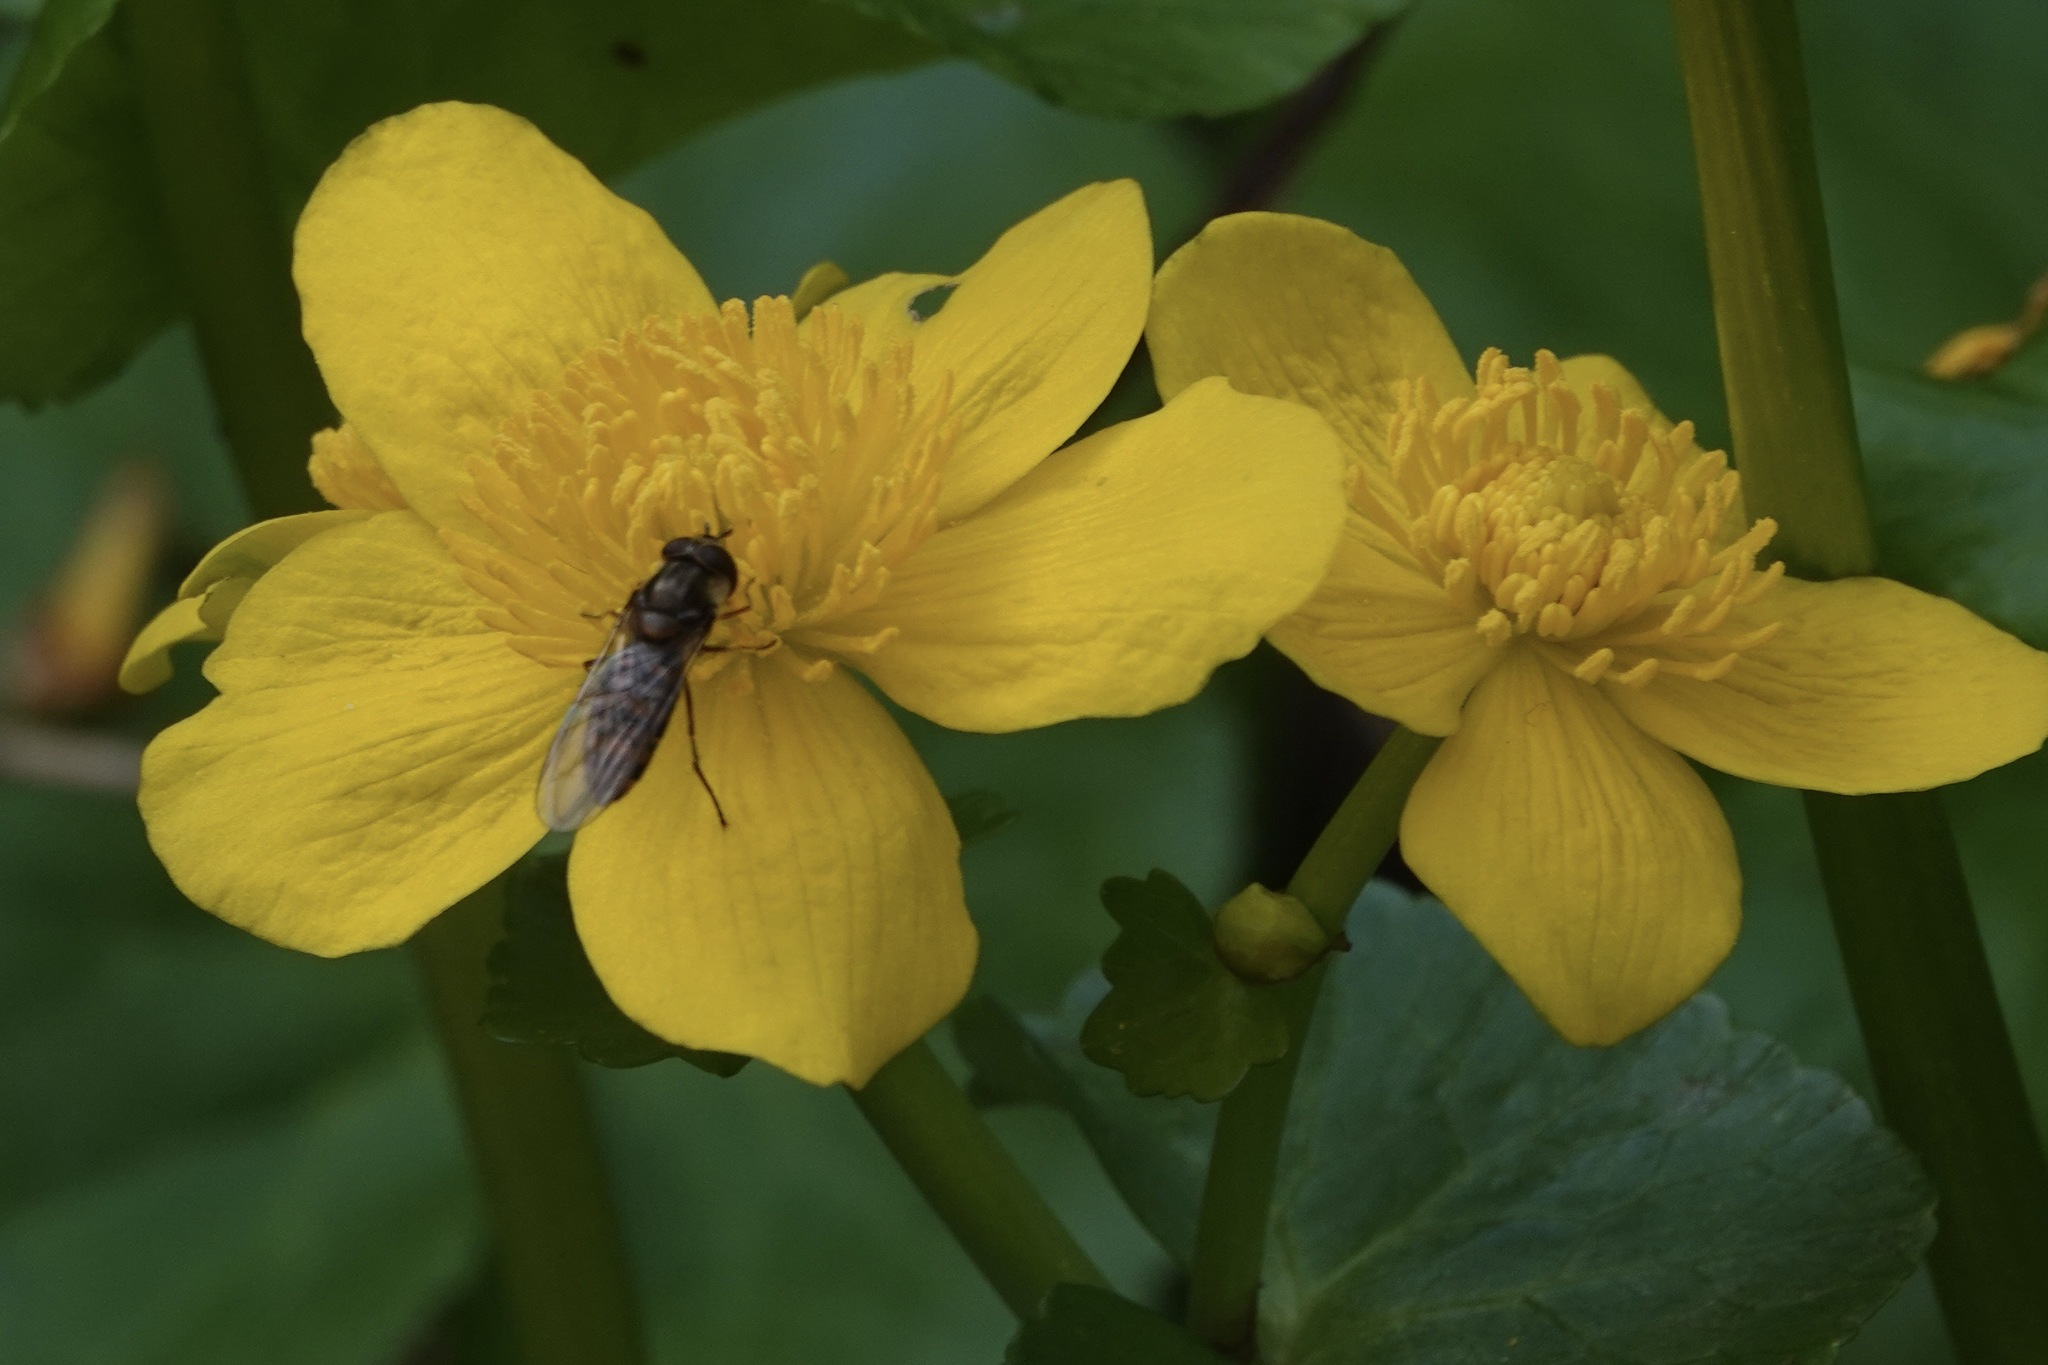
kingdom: Animalia
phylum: Arthropoda
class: Insecta
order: Diptera
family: Syrphidae
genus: Episyrphus
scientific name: Episyrphus balteatus
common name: Marmalade hoverfly
